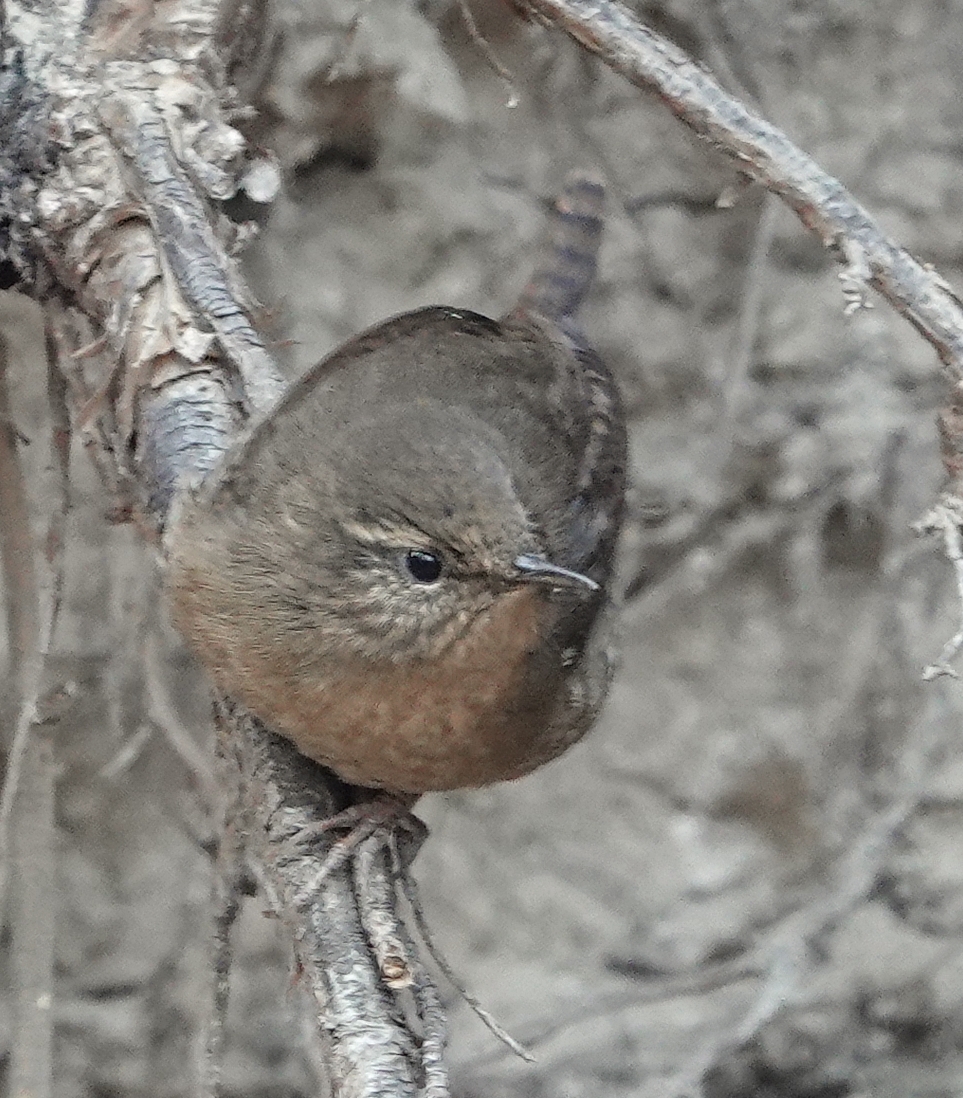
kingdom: Animalia
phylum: Chordata
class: Aves
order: Passeriformes
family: Troglodytidae
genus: Troglodytes
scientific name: Troglodytes hiemalis
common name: Winter wren
